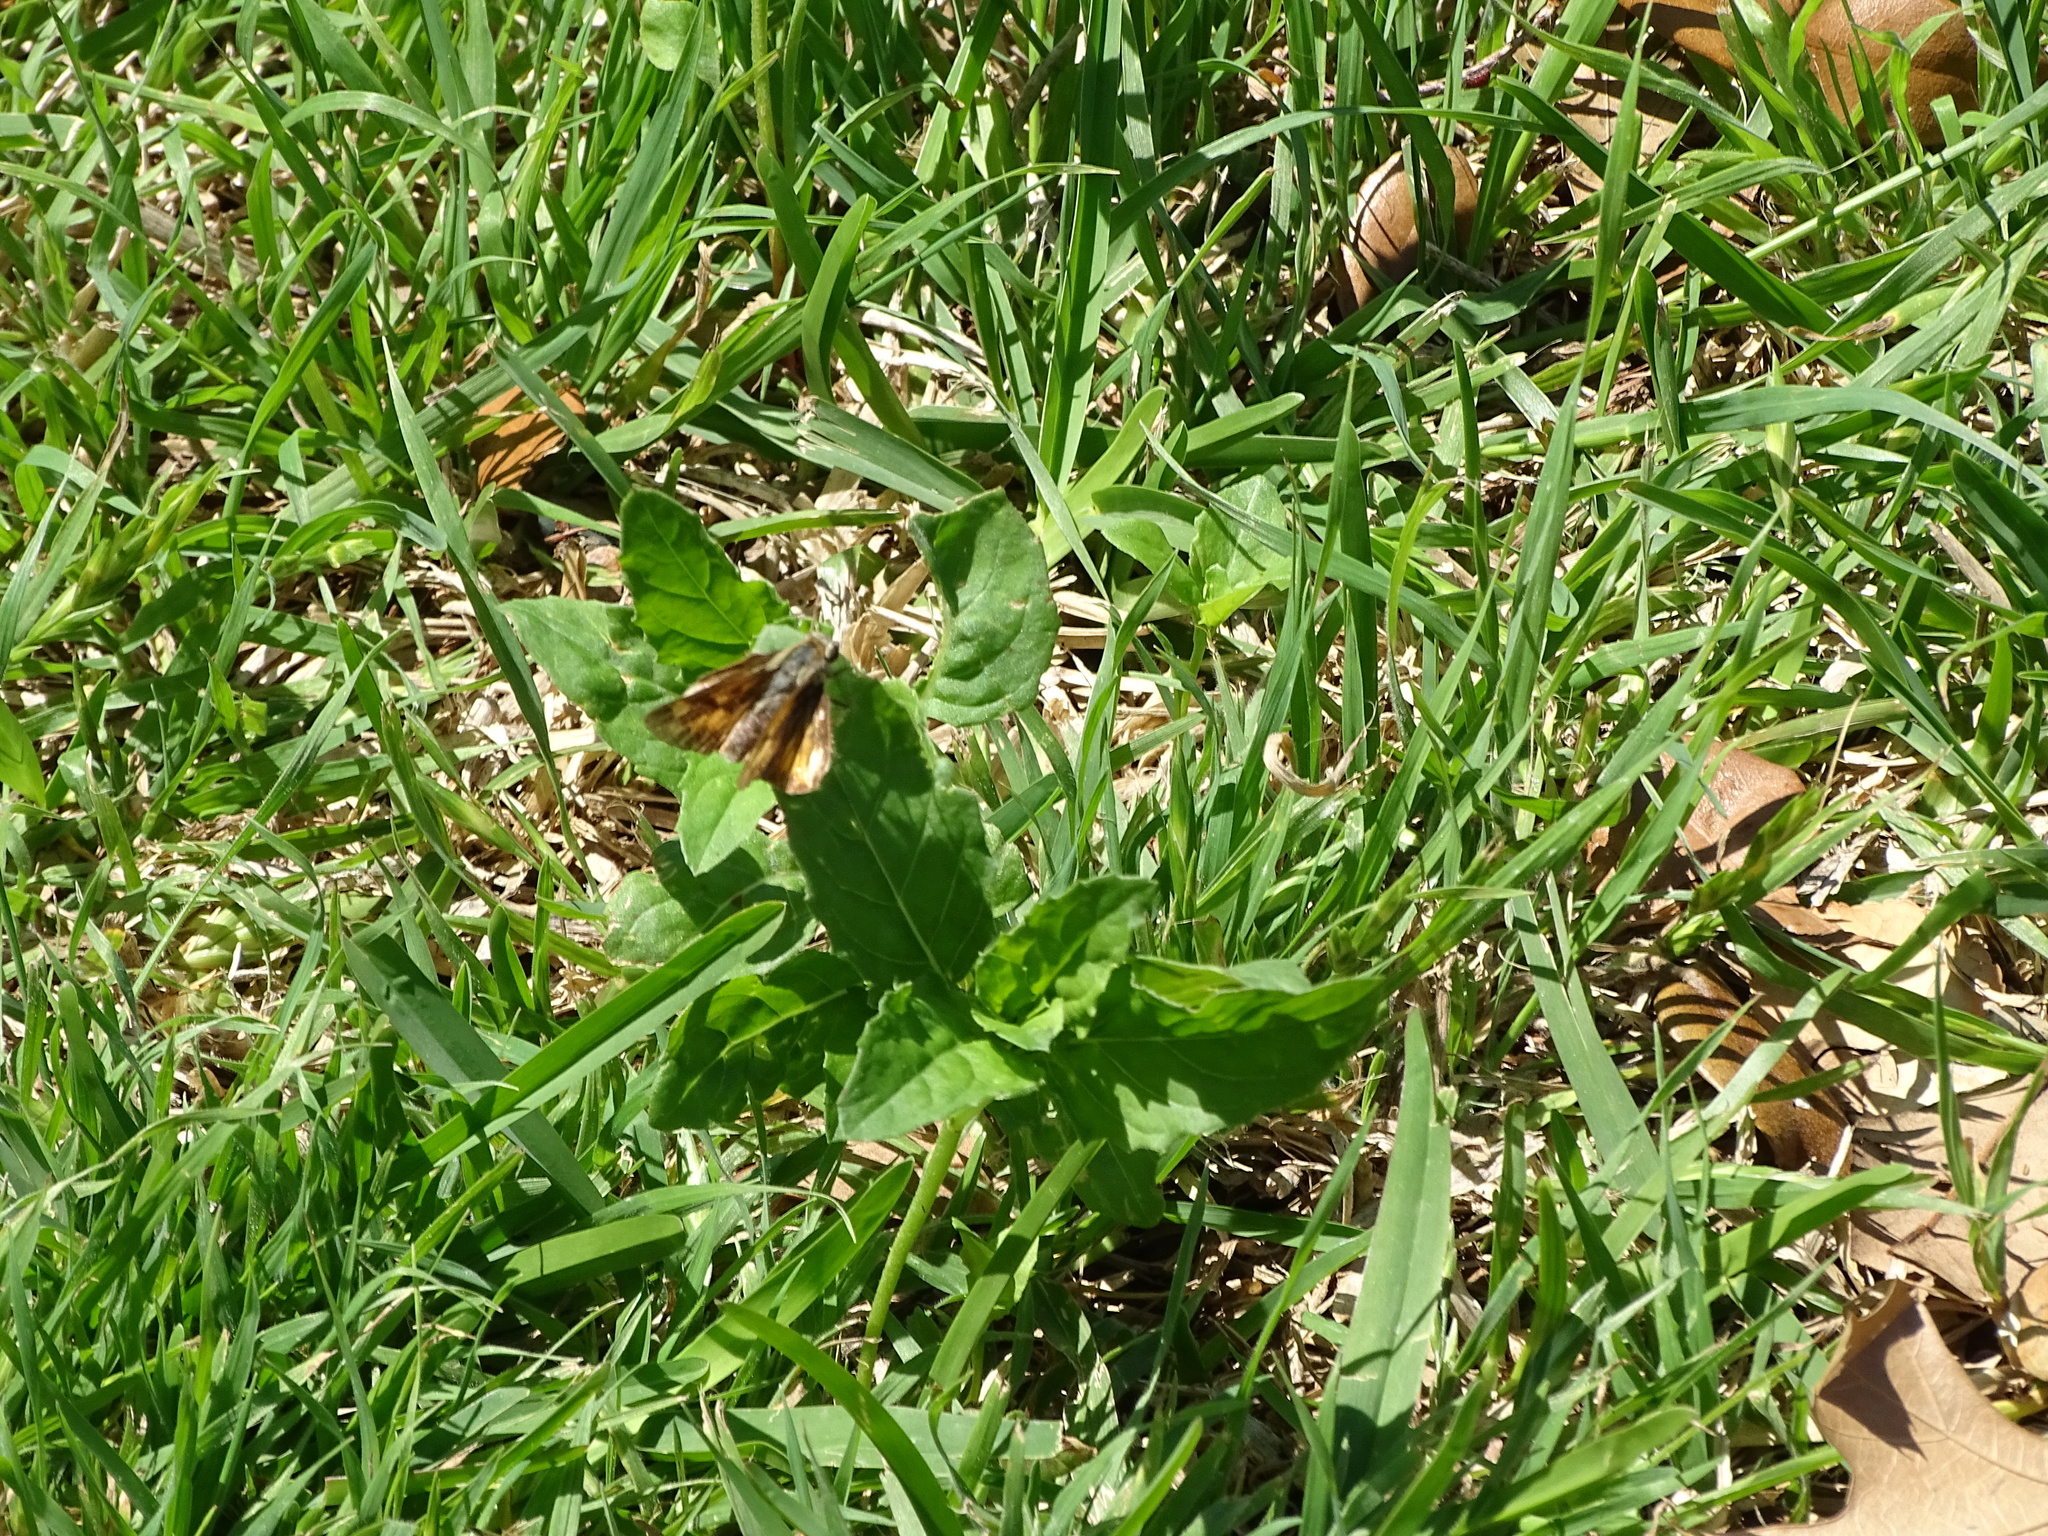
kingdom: Animalia
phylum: Arthropoda
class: Insecta
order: Lepidoptera
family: Hesperiidae
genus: Hylephila
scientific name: Hylephila phyleus
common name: Fiery skipper
